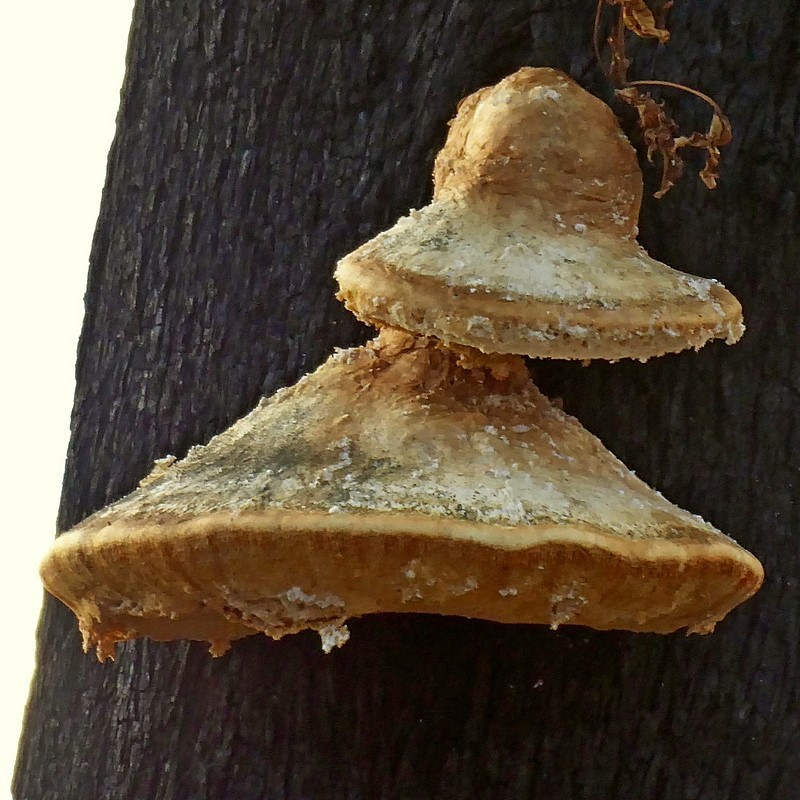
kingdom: Fungi
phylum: Basidiomycota
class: Agaricomycetes
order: Polyporales
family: Laetiporaceae
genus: Laetiporus
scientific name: Laetiporus portentosus
